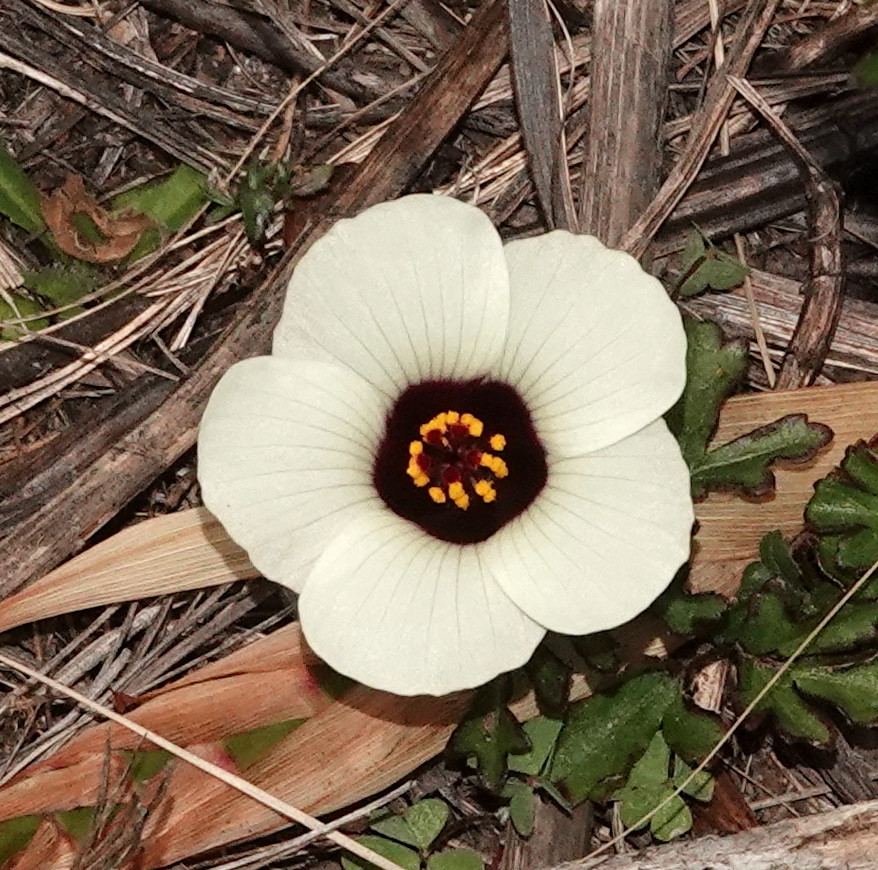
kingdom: Plantae
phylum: Tracheophyta
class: Magnoliopsida
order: Malvales
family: Malvaceae
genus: Hibiscus
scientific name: Hibiscus trionum
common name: Bladder ketmia
